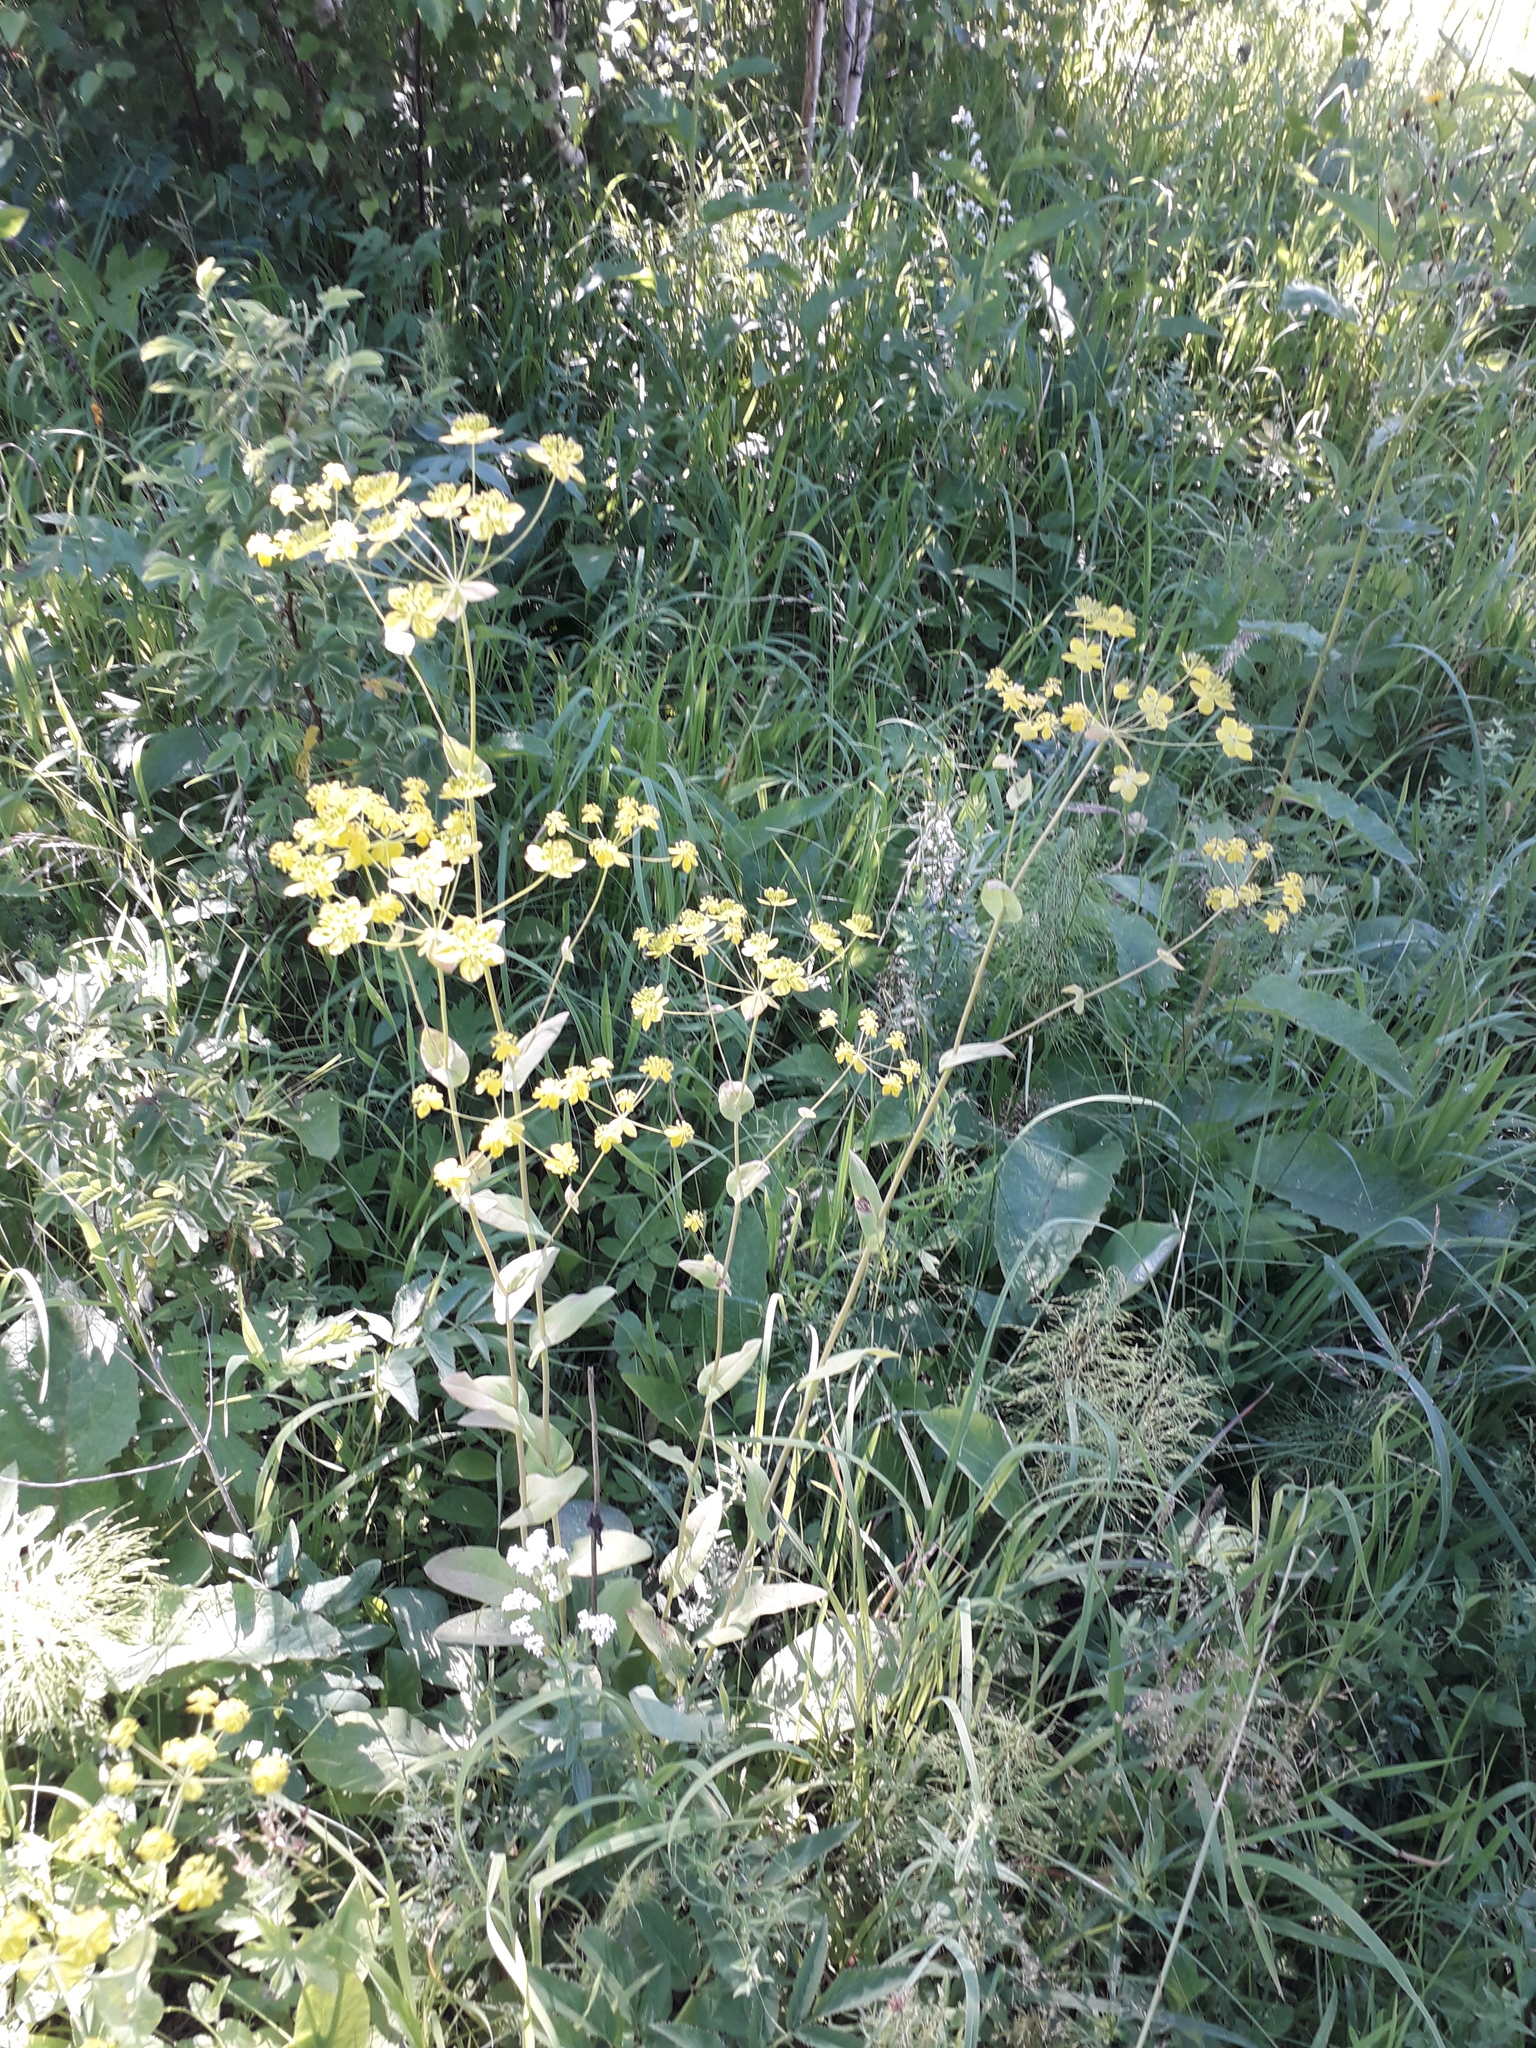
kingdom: Plantae
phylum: Tracheophyta
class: Magnoliopsida
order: Apiales
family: Apiaceae
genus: Bupleurum
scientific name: Bupleurum aureum
